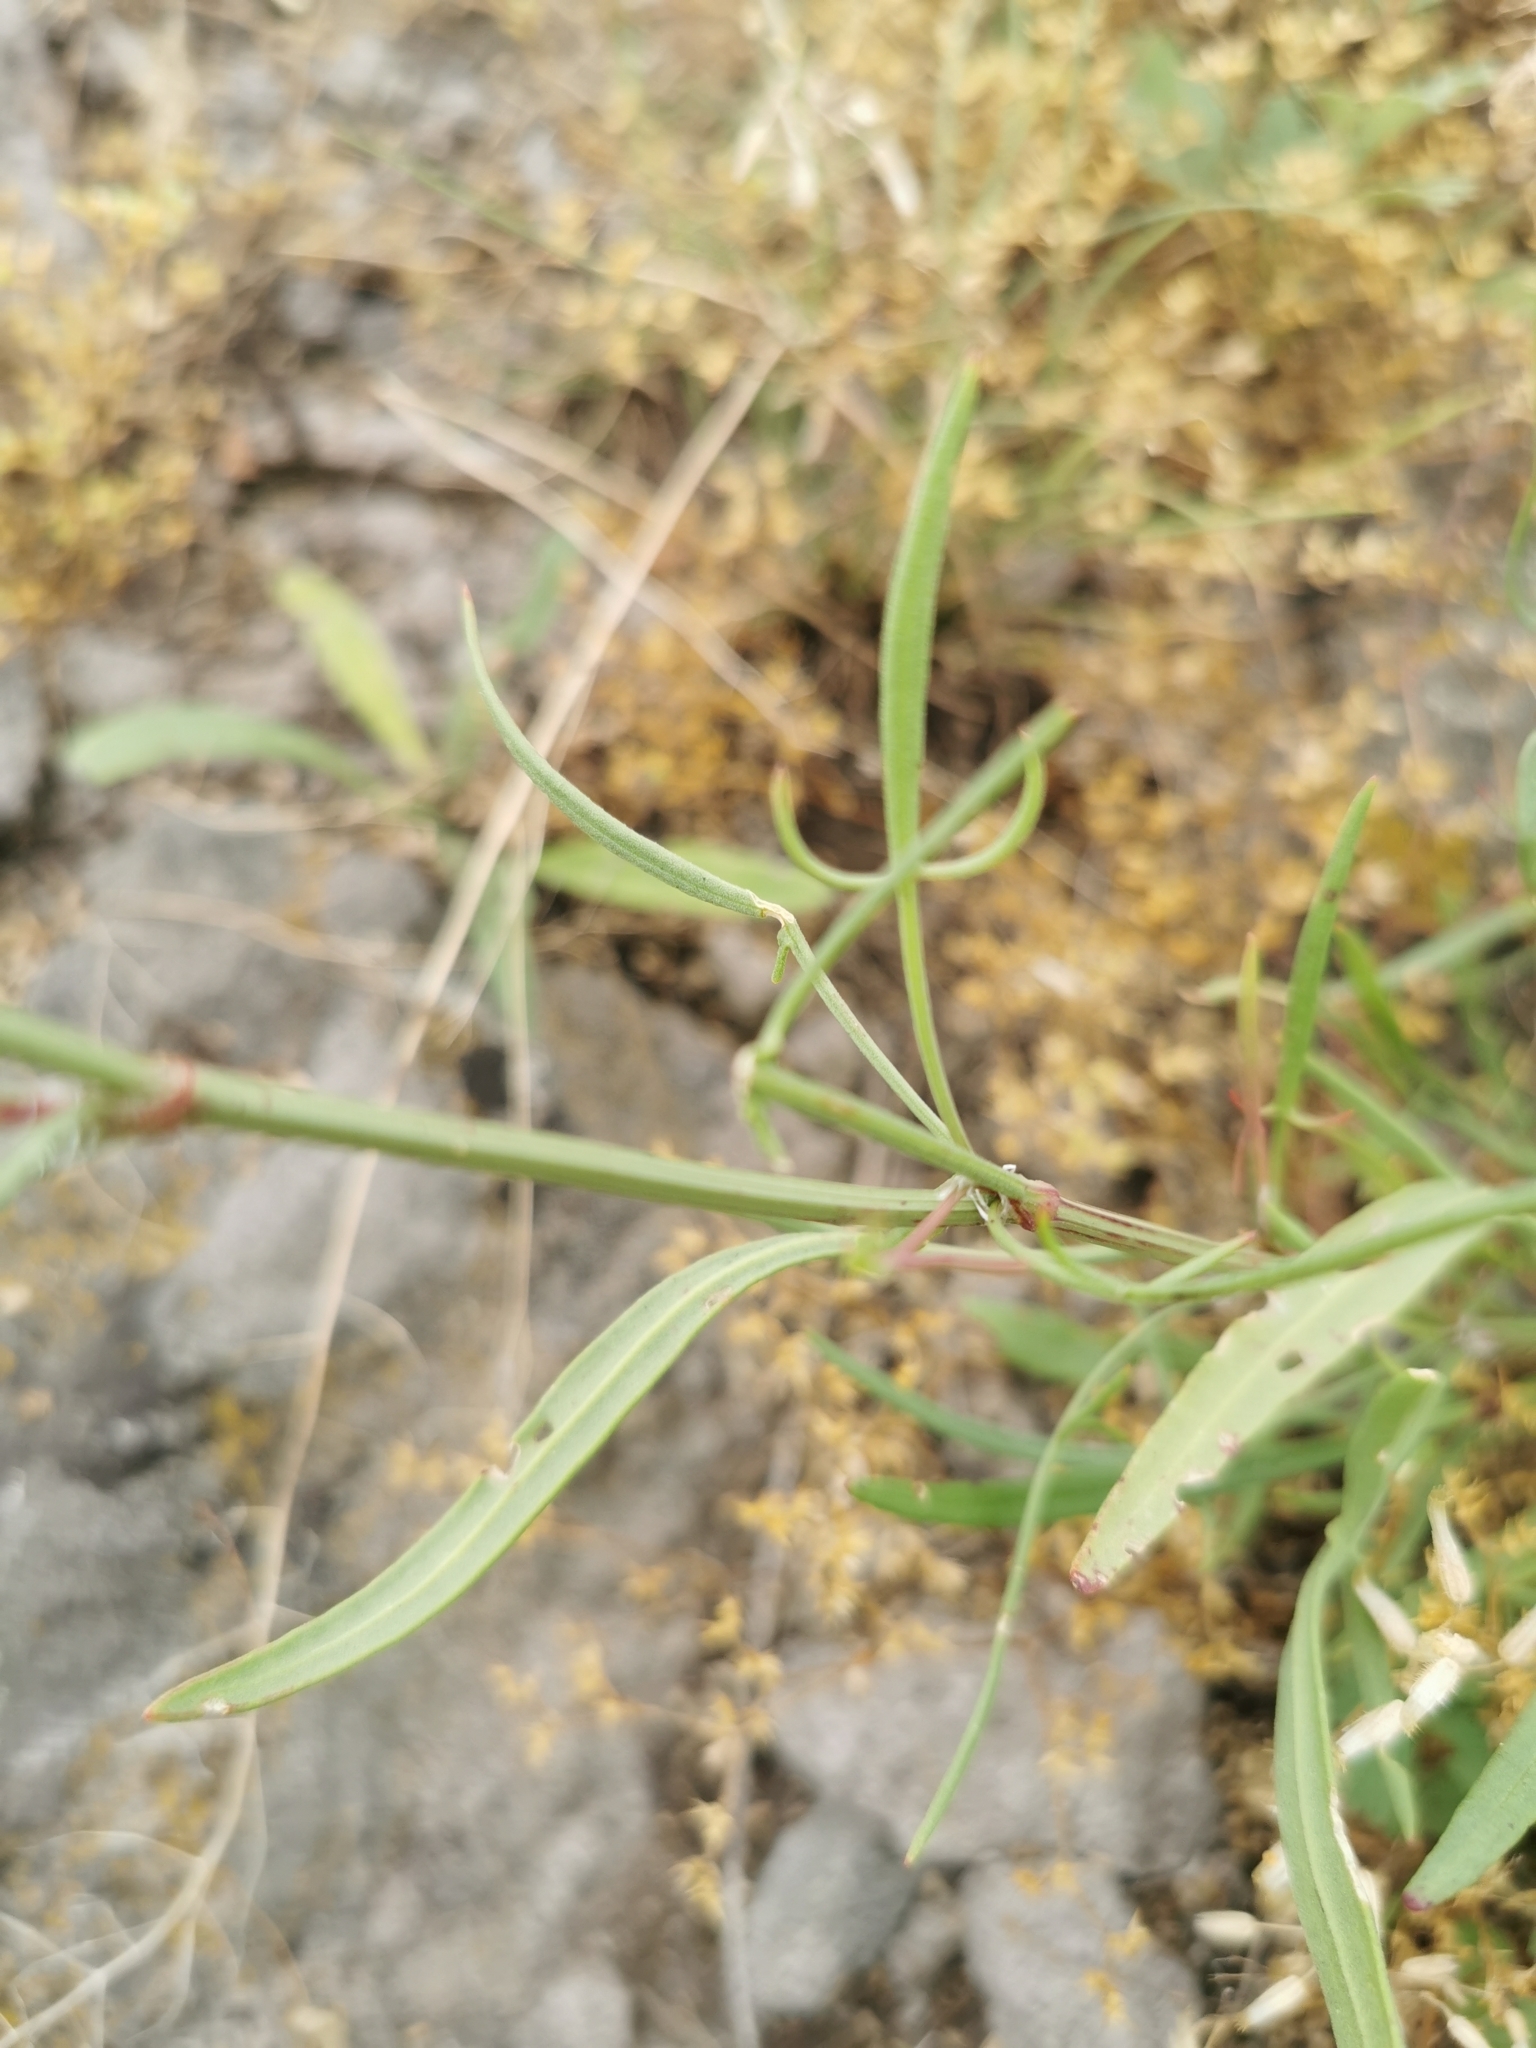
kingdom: Plantae
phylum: Tracheophyta
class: Magnoliopsida
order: Caryophyllales
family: Polygonaceae
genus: Rumex
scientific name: Rumex acetosella
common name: Common sheep sorrel
